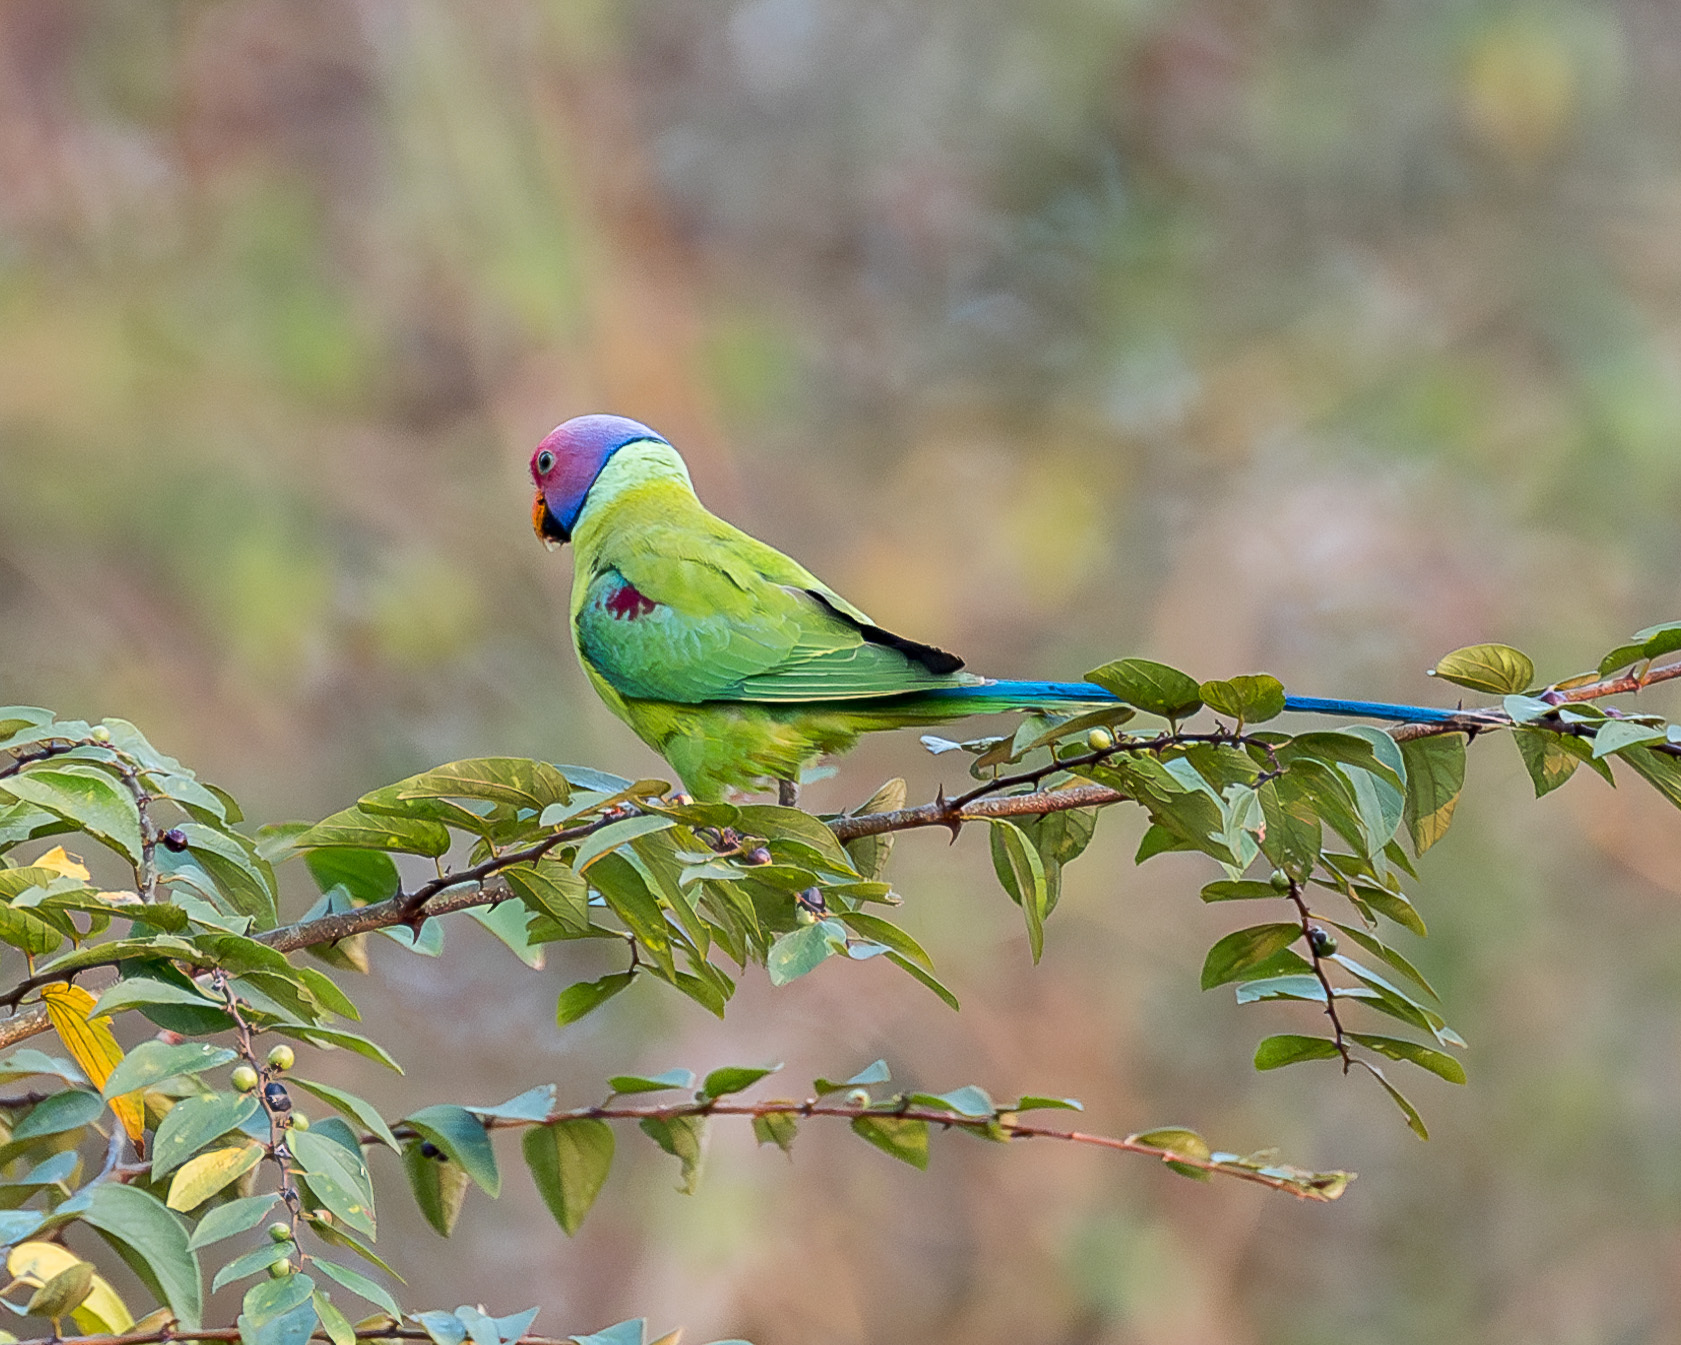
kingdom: Animalia
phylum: Chordata
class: Aves
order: Psittaciformes
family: Psittacidae
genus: Psittacula
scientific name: Psittacula cyanocephala
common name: Plum-headed parakeet
